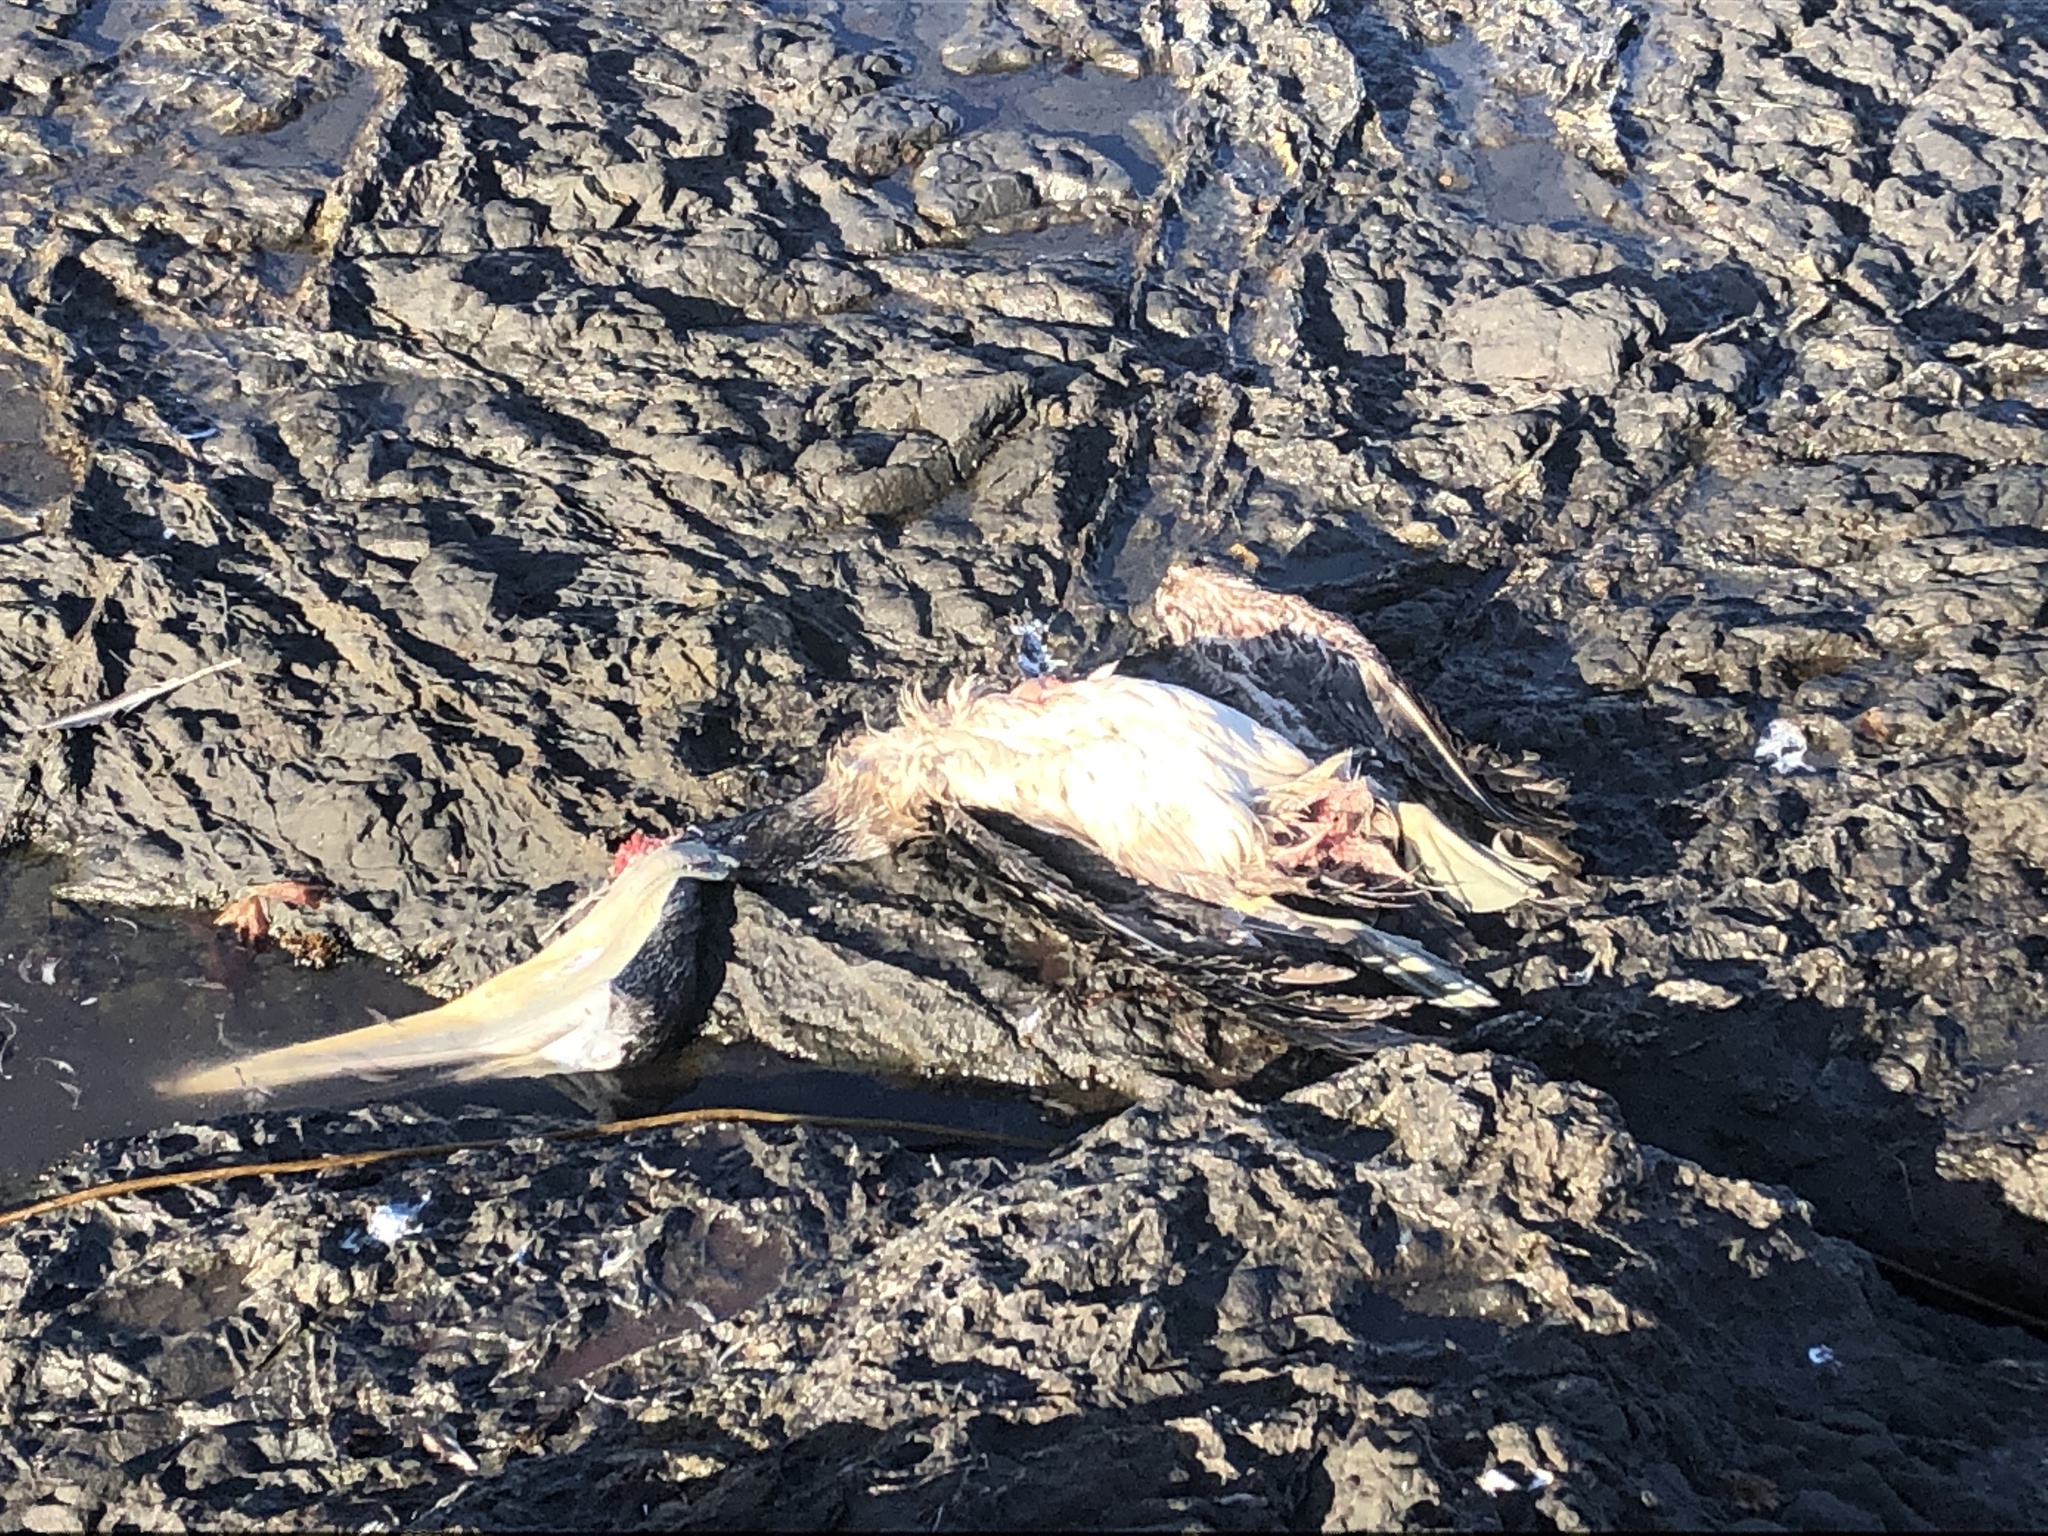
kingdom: Animalia
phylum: Chordata
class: Aves
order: Pelecaniformes
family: Pelecanidae
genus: Pelecanus
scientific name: Pelecanus occidentalis
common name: Brown pelican
